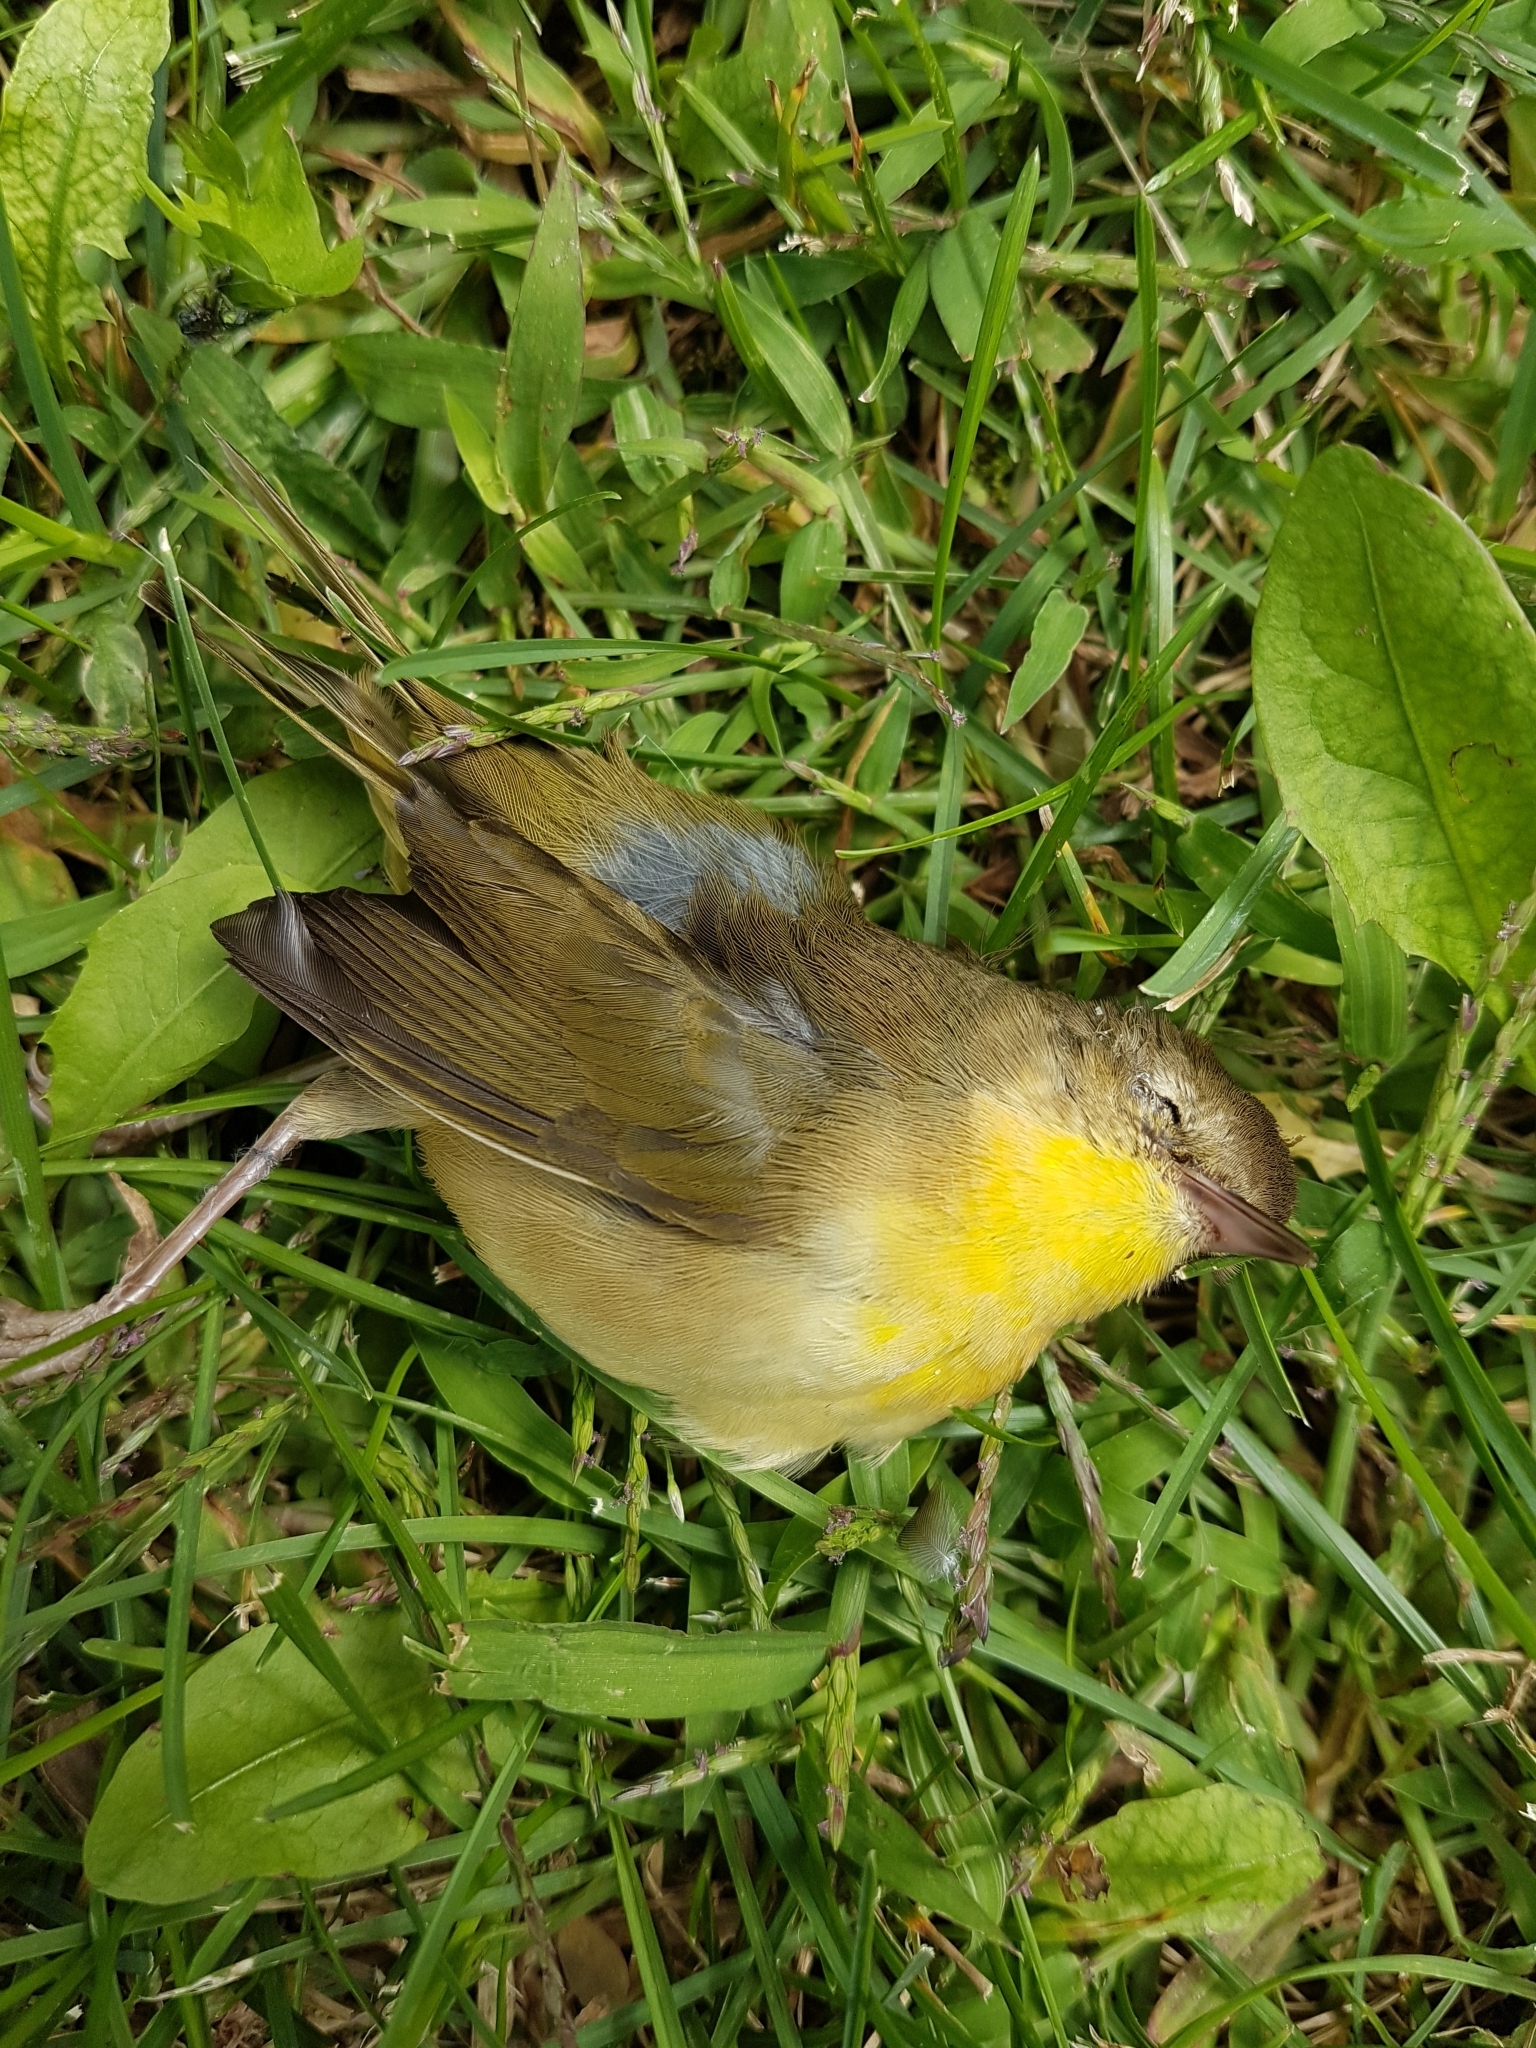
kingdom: Animalia
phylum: Chordata
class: Aves
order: Passeriformes
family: Parulidae
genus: Geothlypis
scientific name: Geothlypis trichas
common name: Common yellowthroat
